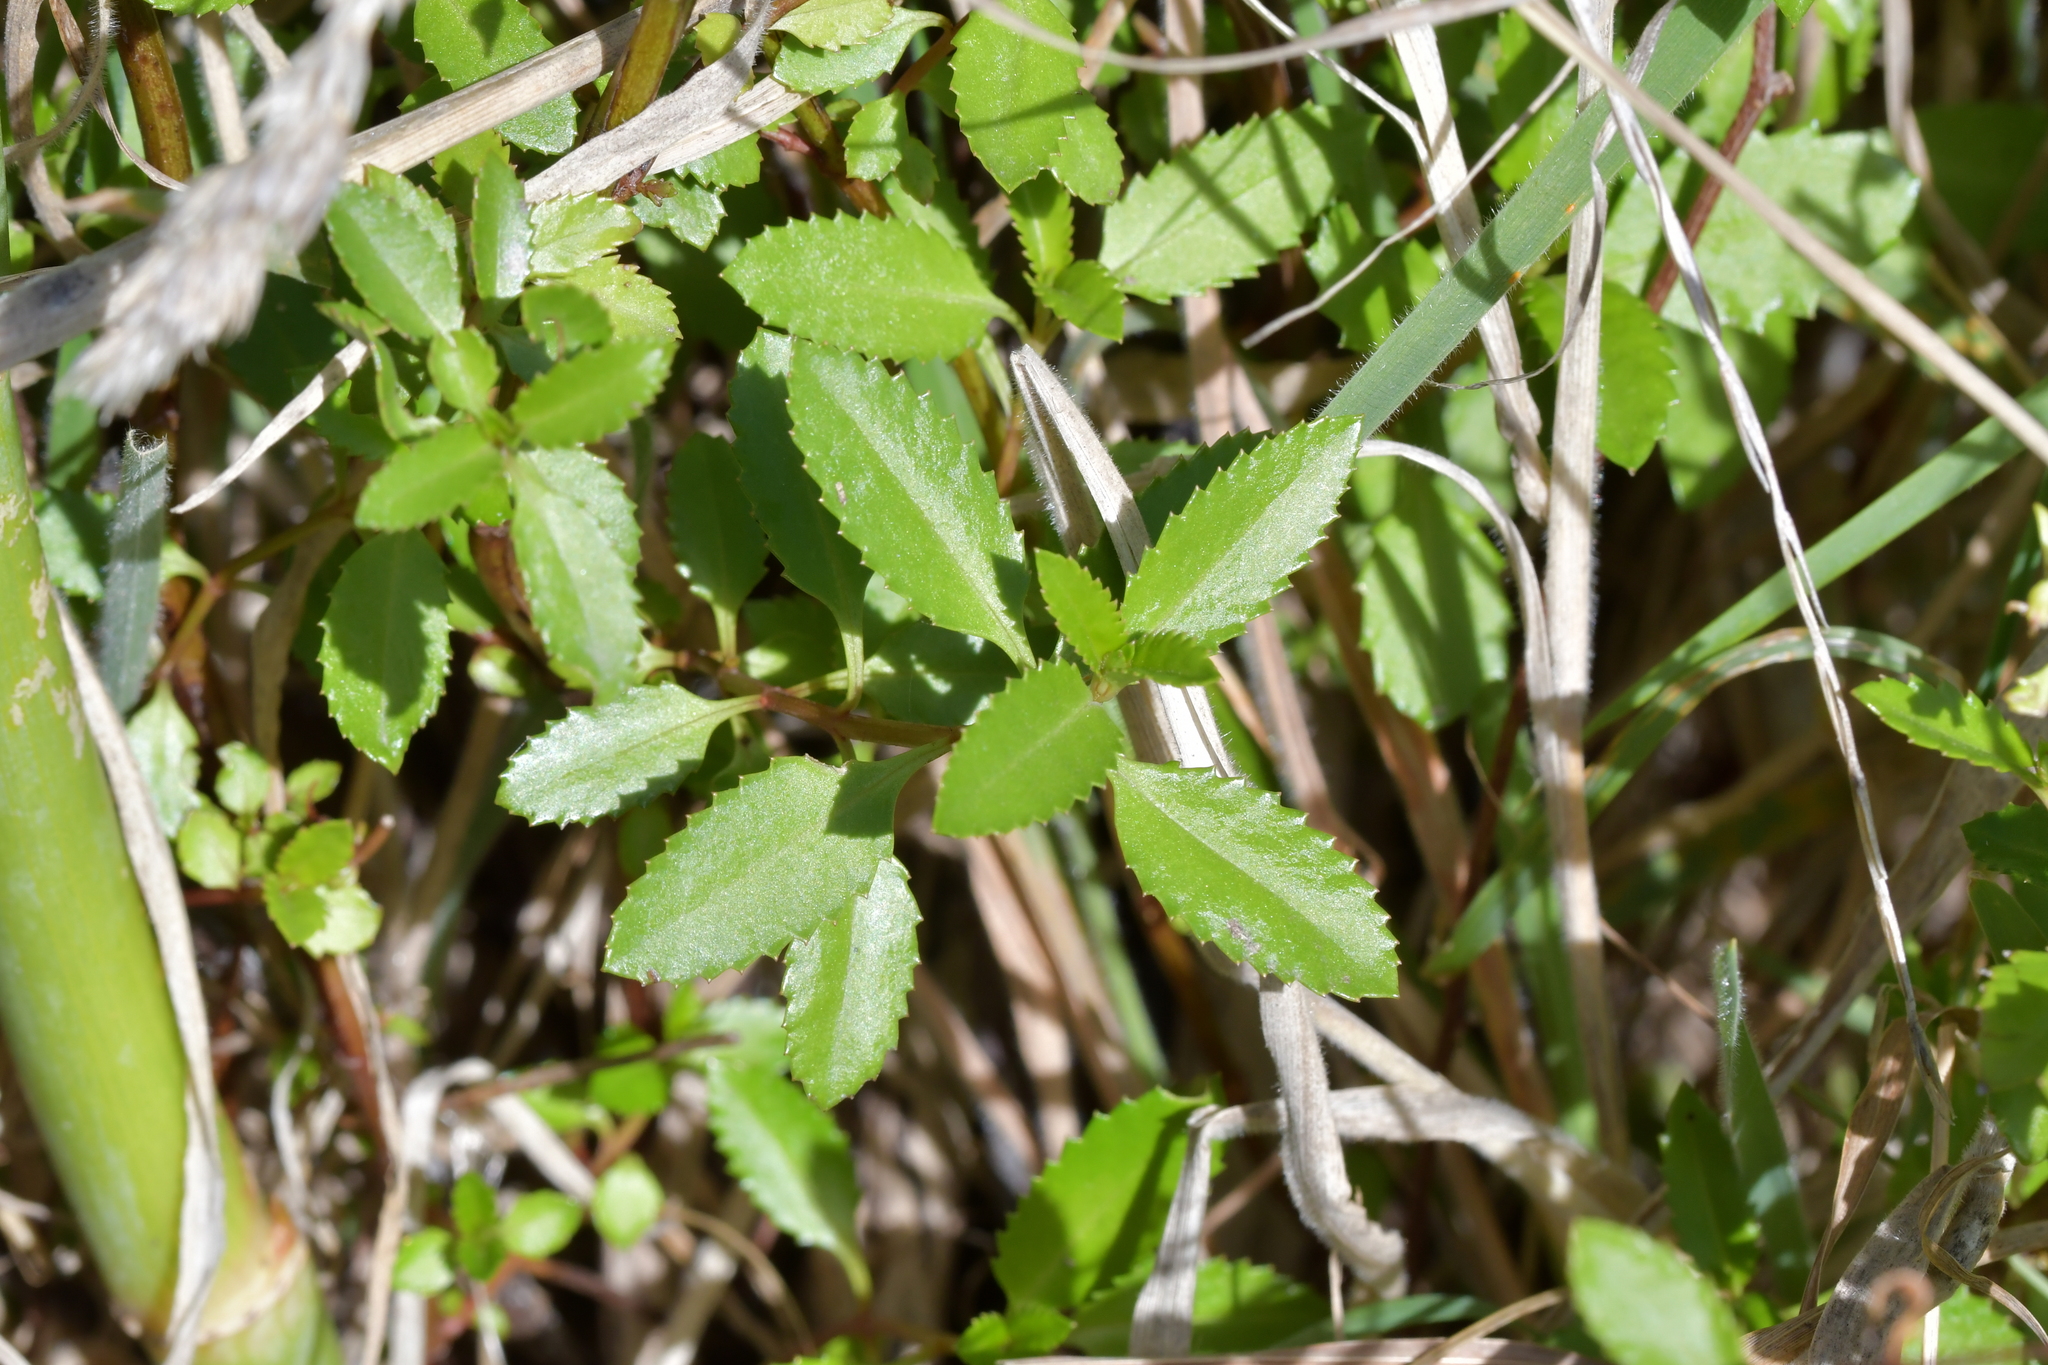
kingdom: Plantae
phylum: Tracheophyta
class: Magnoliopsida
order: Saxifragales
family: Haloragaceae
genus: Haloragis
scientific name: Haloragis erecta
